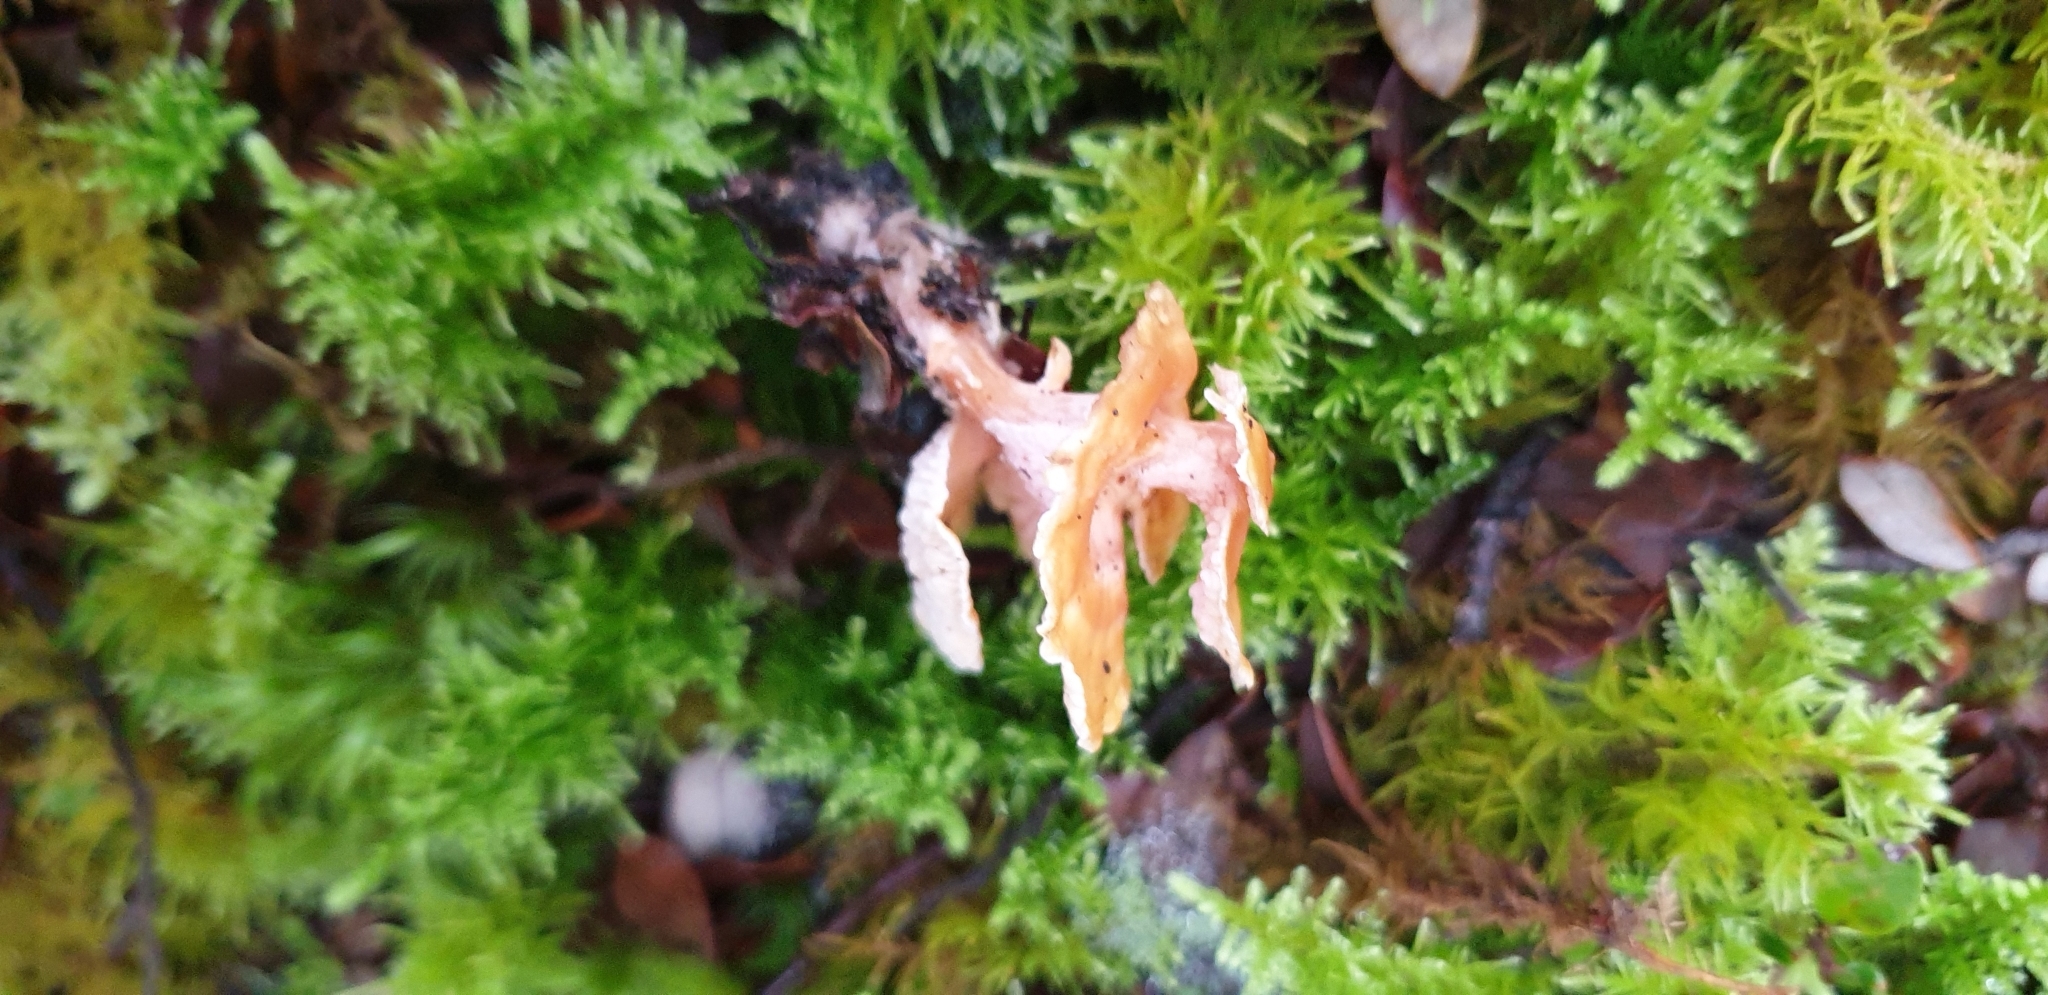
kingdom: Fungi
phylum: Basidiomycota
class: Agaricomycetes
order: Amylocorticiales
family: Amylocorticiaceae
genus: Podoserpula
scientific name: Podoserpula pusio
